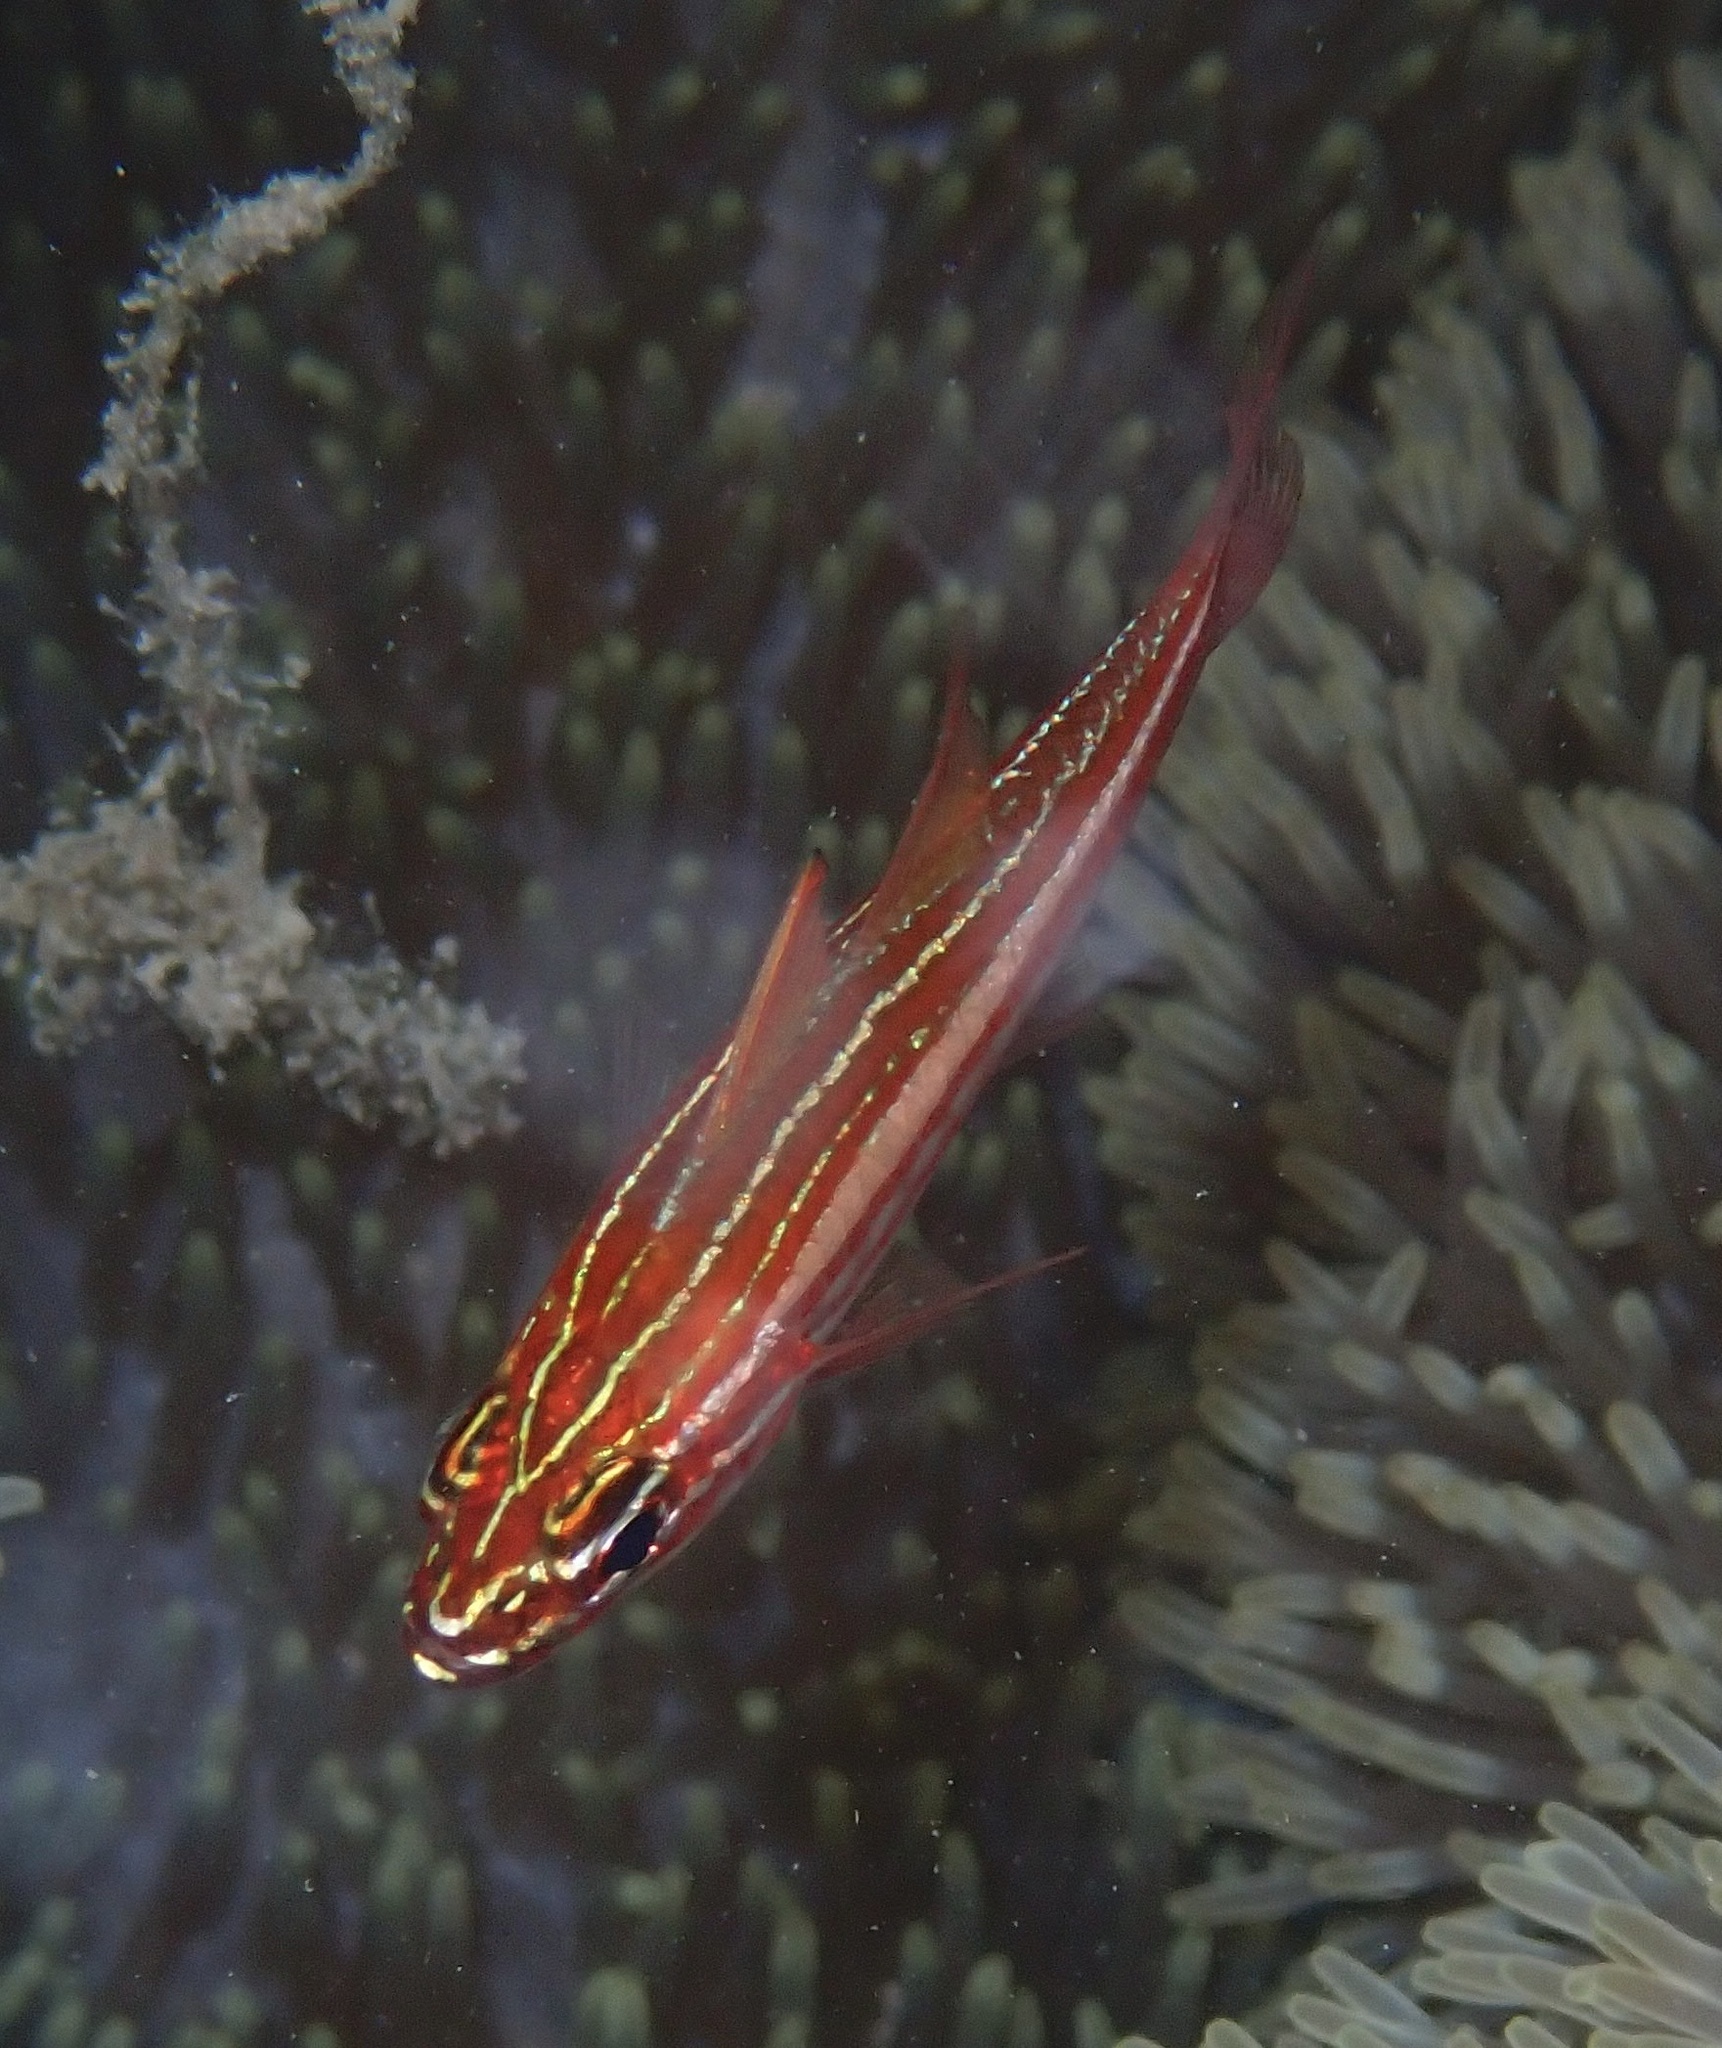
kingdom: Animalia
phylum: Chordata
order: Perciformes
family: Apogonidae
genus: Ostorhinchus
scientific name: Ostorhinchus margaritophorus
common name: Pearly cardinalfish
